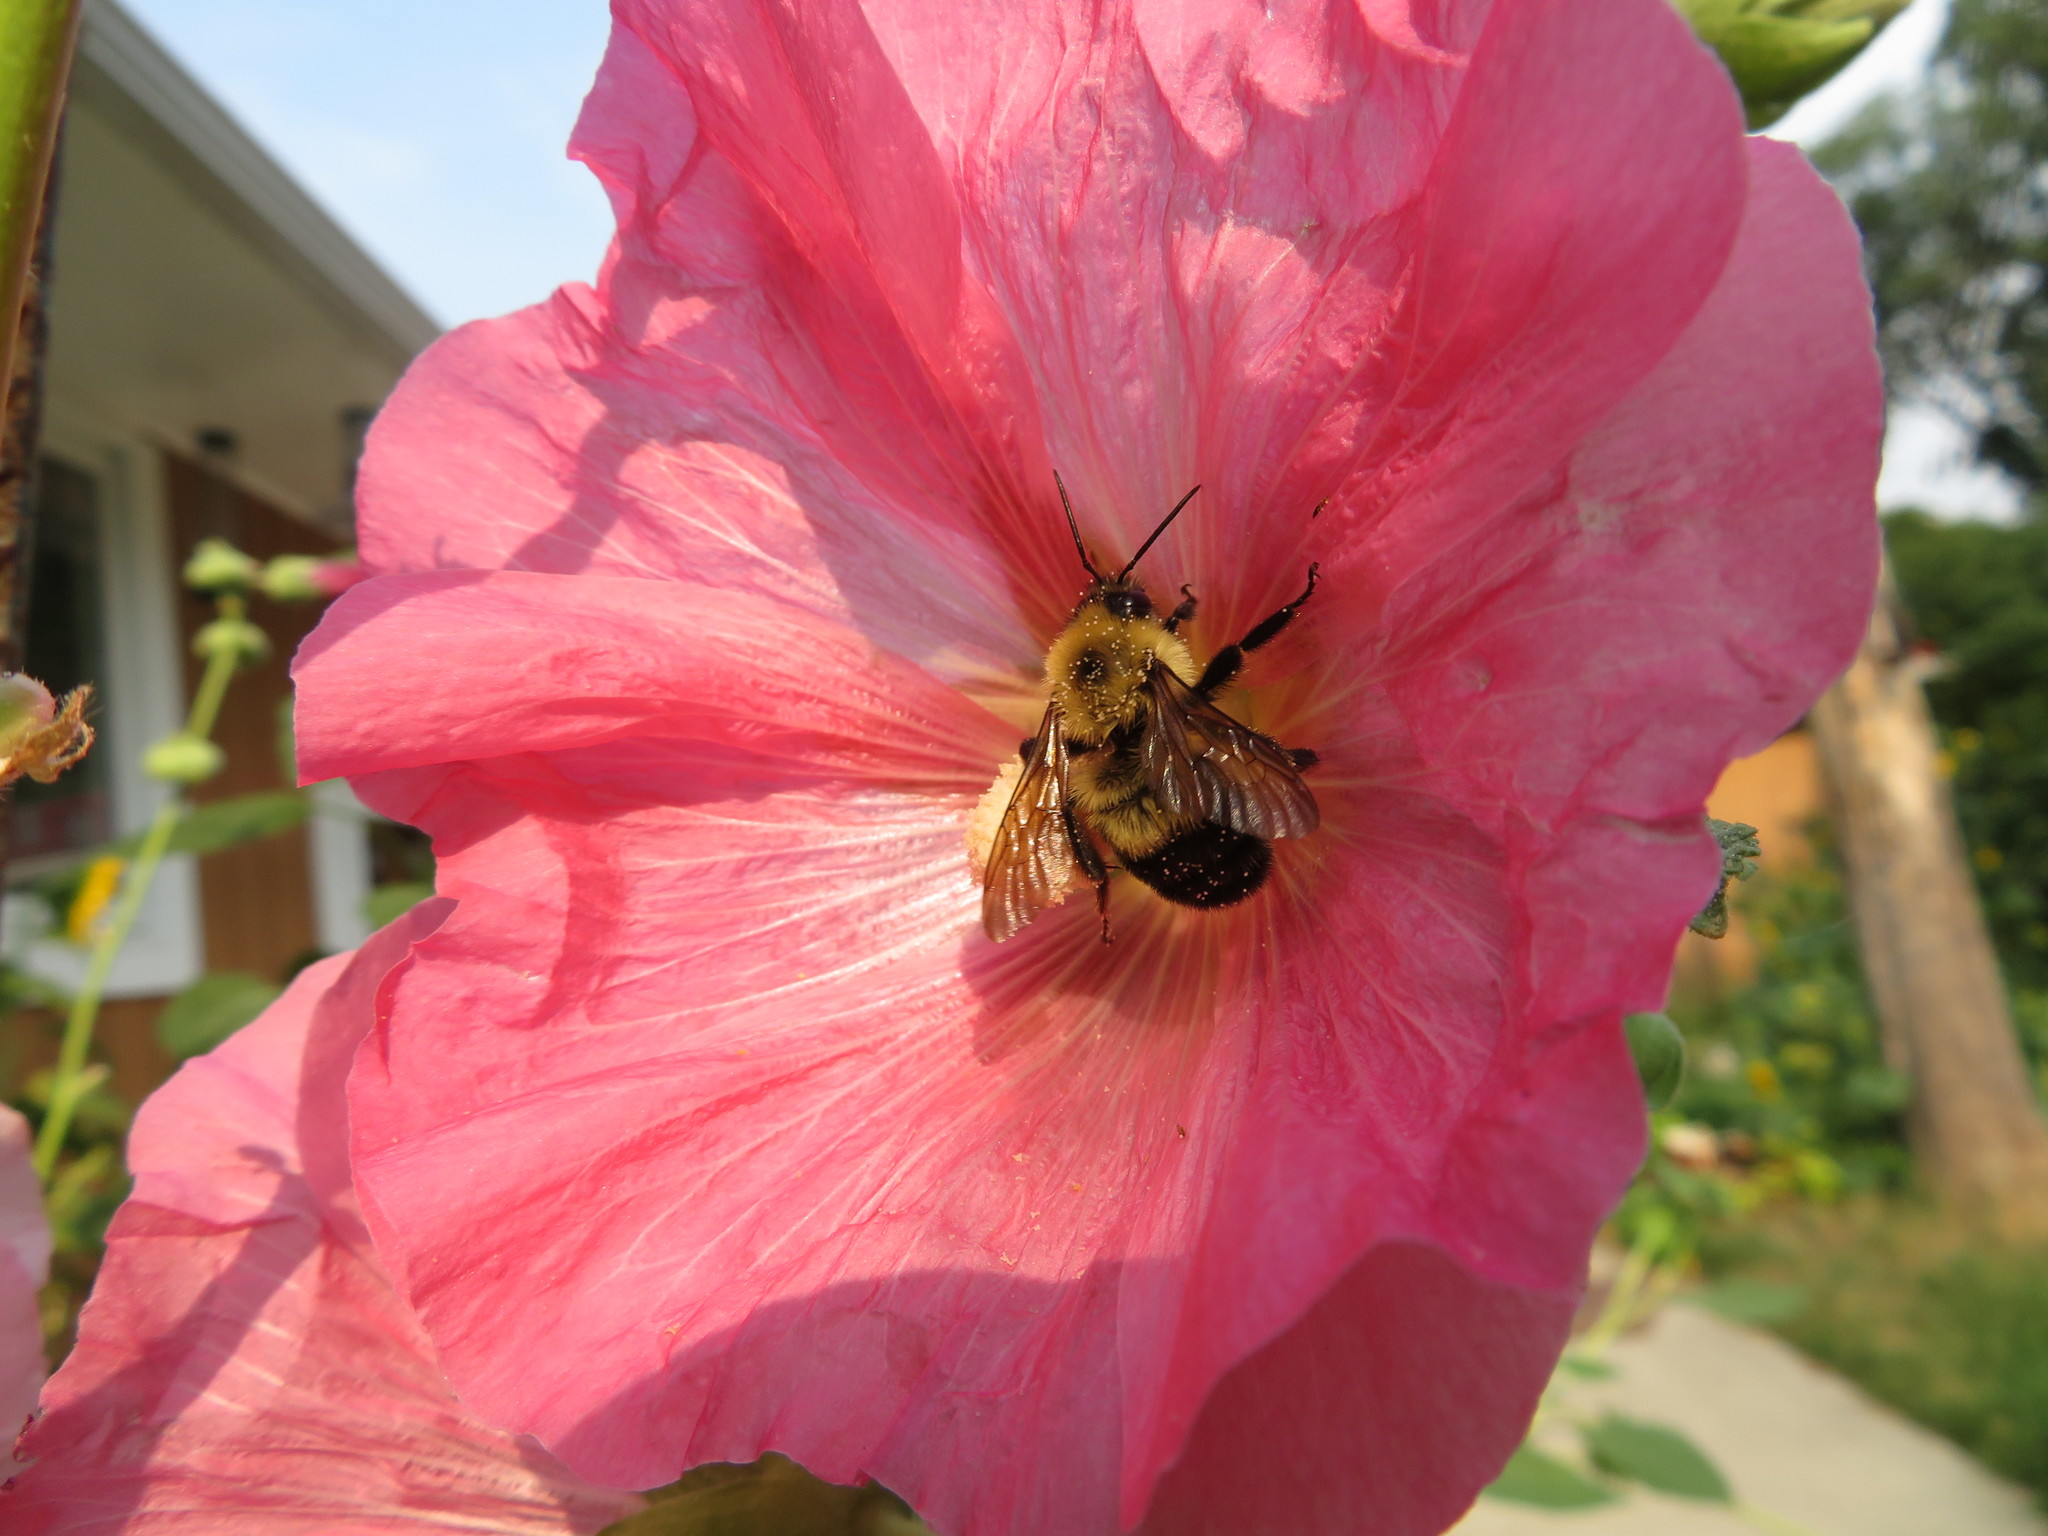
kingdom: Animalia
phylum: Arthropoda
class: Insecta
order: Hymenoptera
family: Apidae
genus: Bombus
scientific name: Bombus bimaculatus
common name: Two-spotted bumble bee
